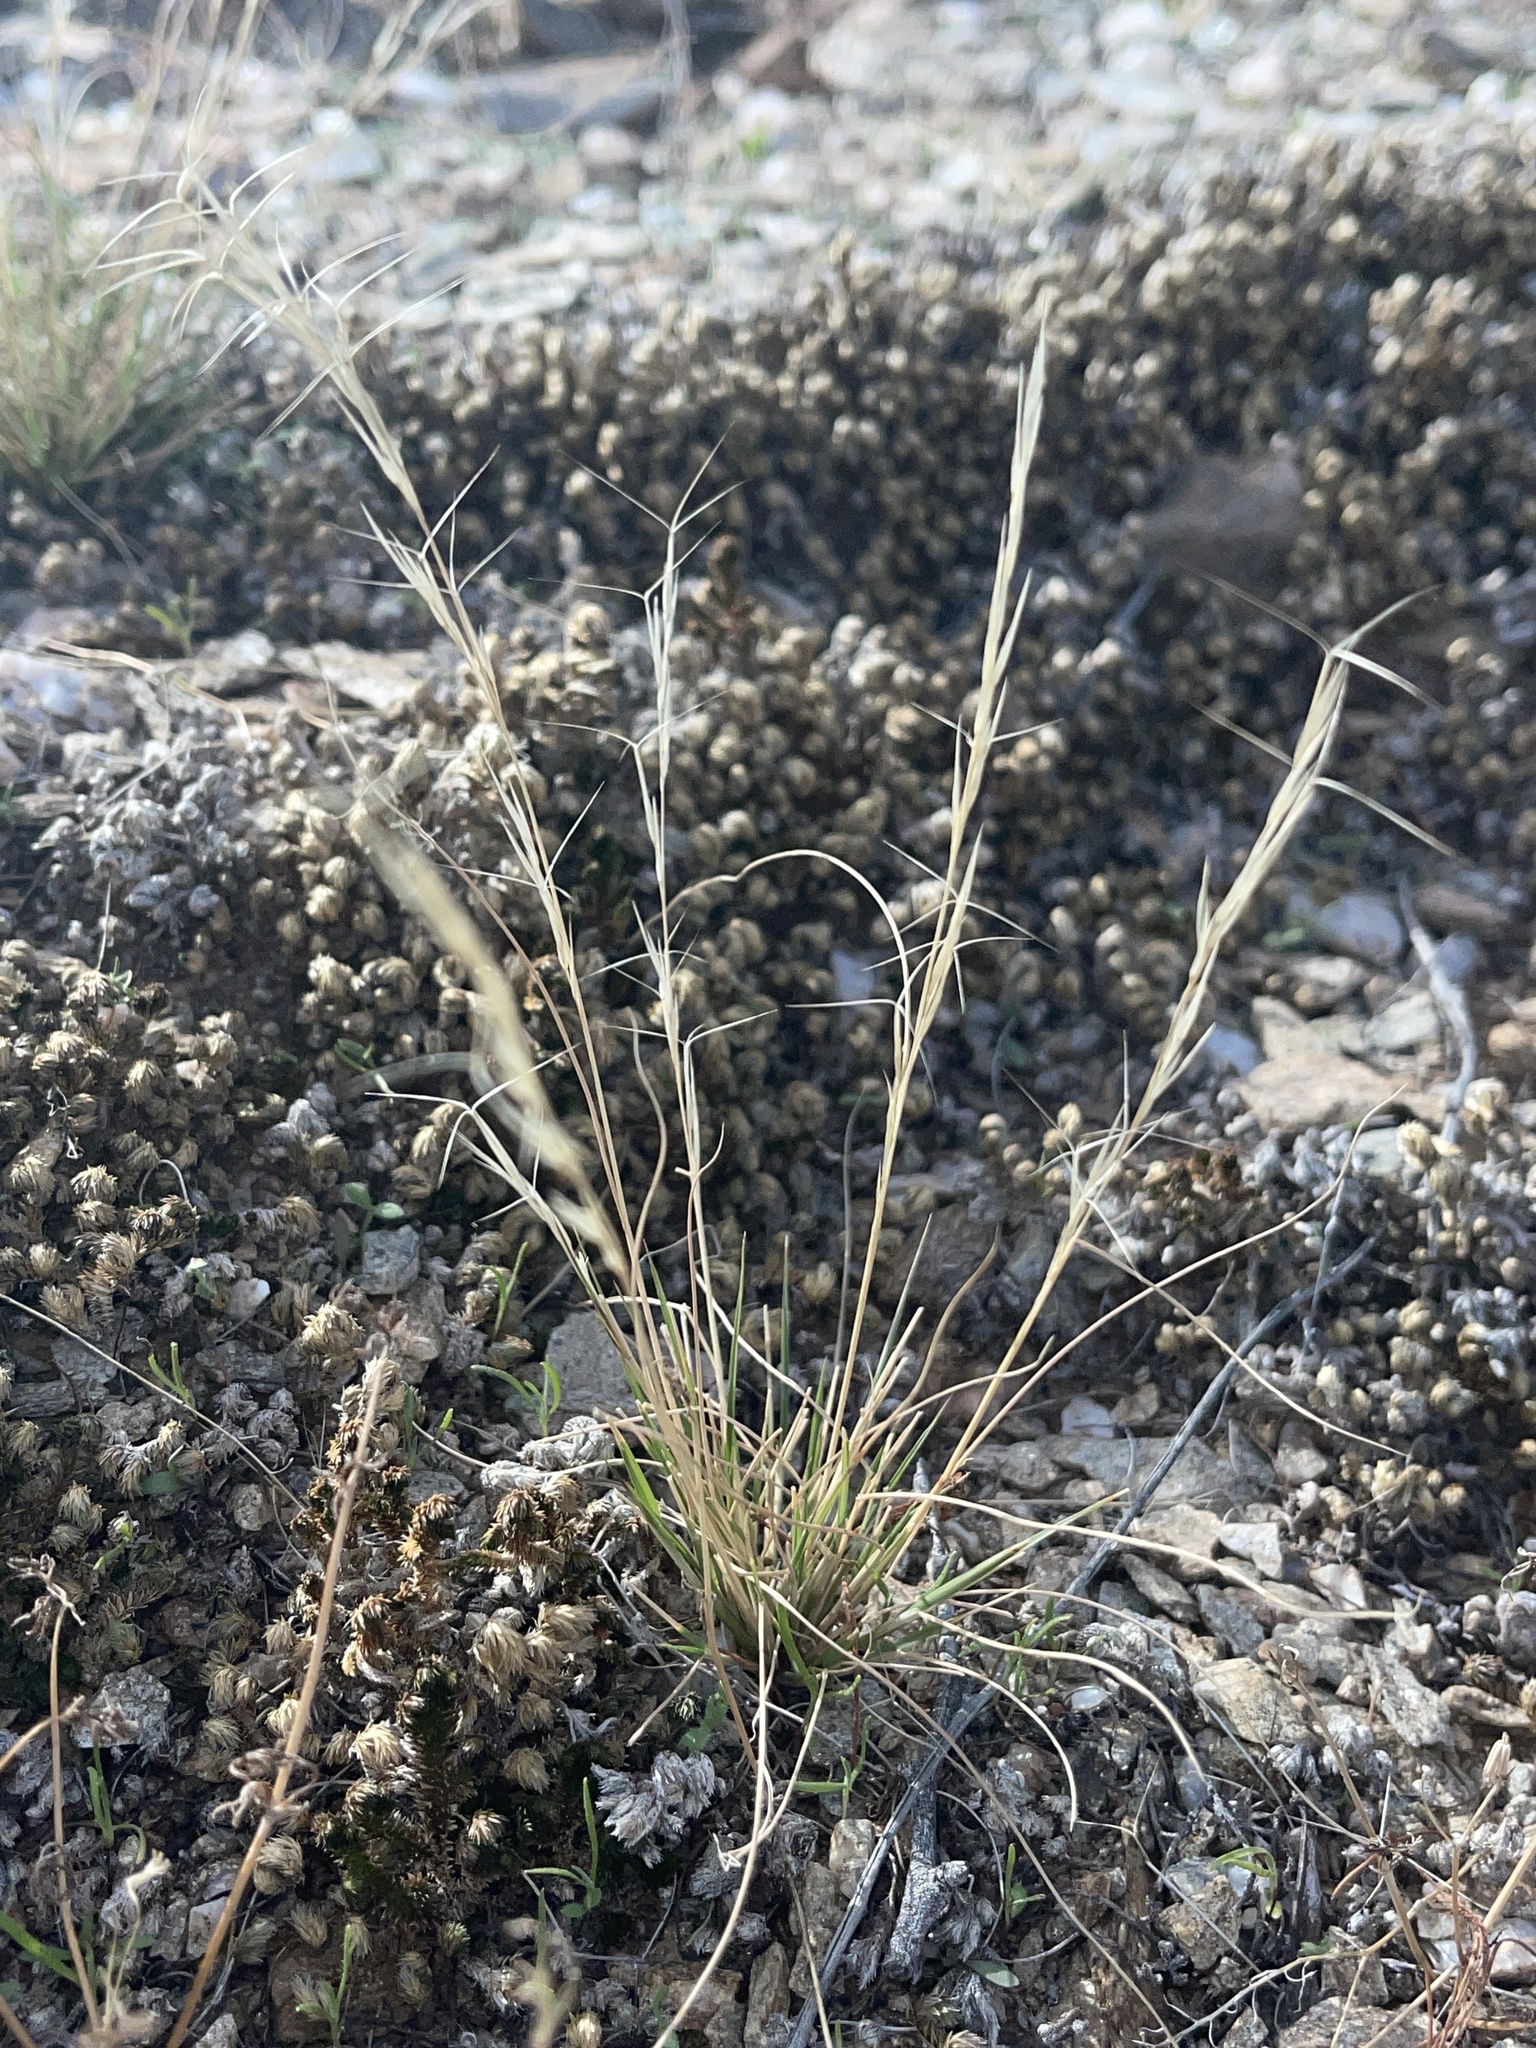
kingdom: Plantae
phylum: Tracheophyta
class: Liliopsida
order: Poales
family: Poaceae
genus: Aristida
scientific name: Aristida adscensionis
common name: Sixweeks threeawn
